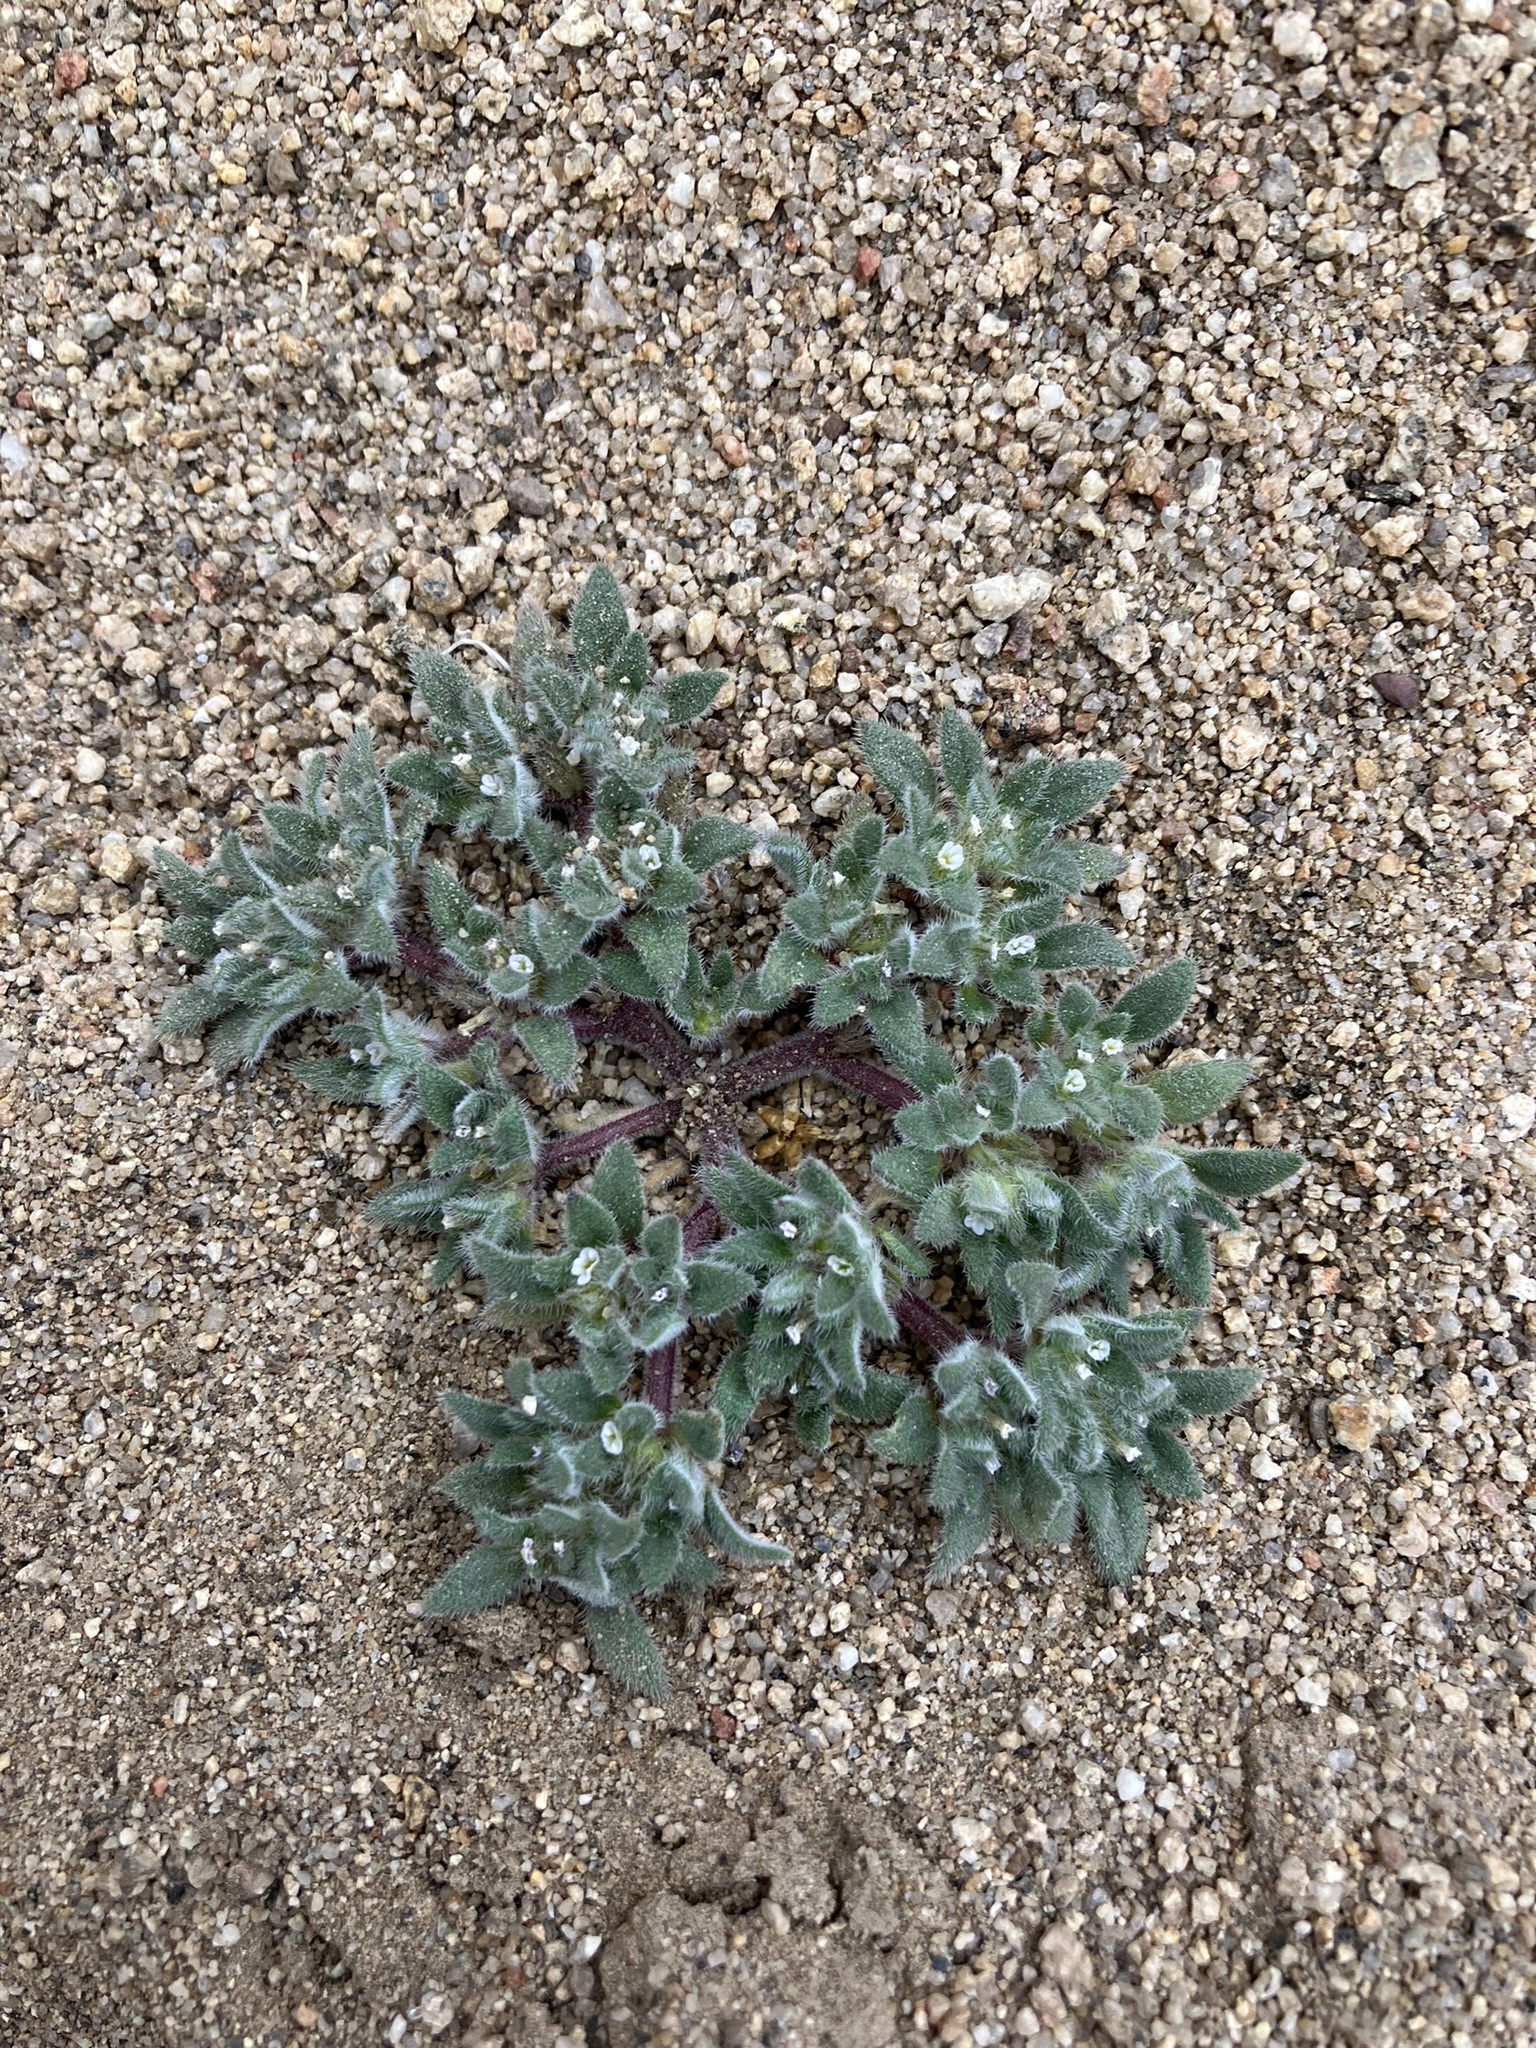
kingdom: Plantae
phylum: Tracheophyta
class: Magnoliopsida
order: Boraginales
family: Namaceae
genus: Nama
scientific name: Nama densa
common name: Leafy nama
